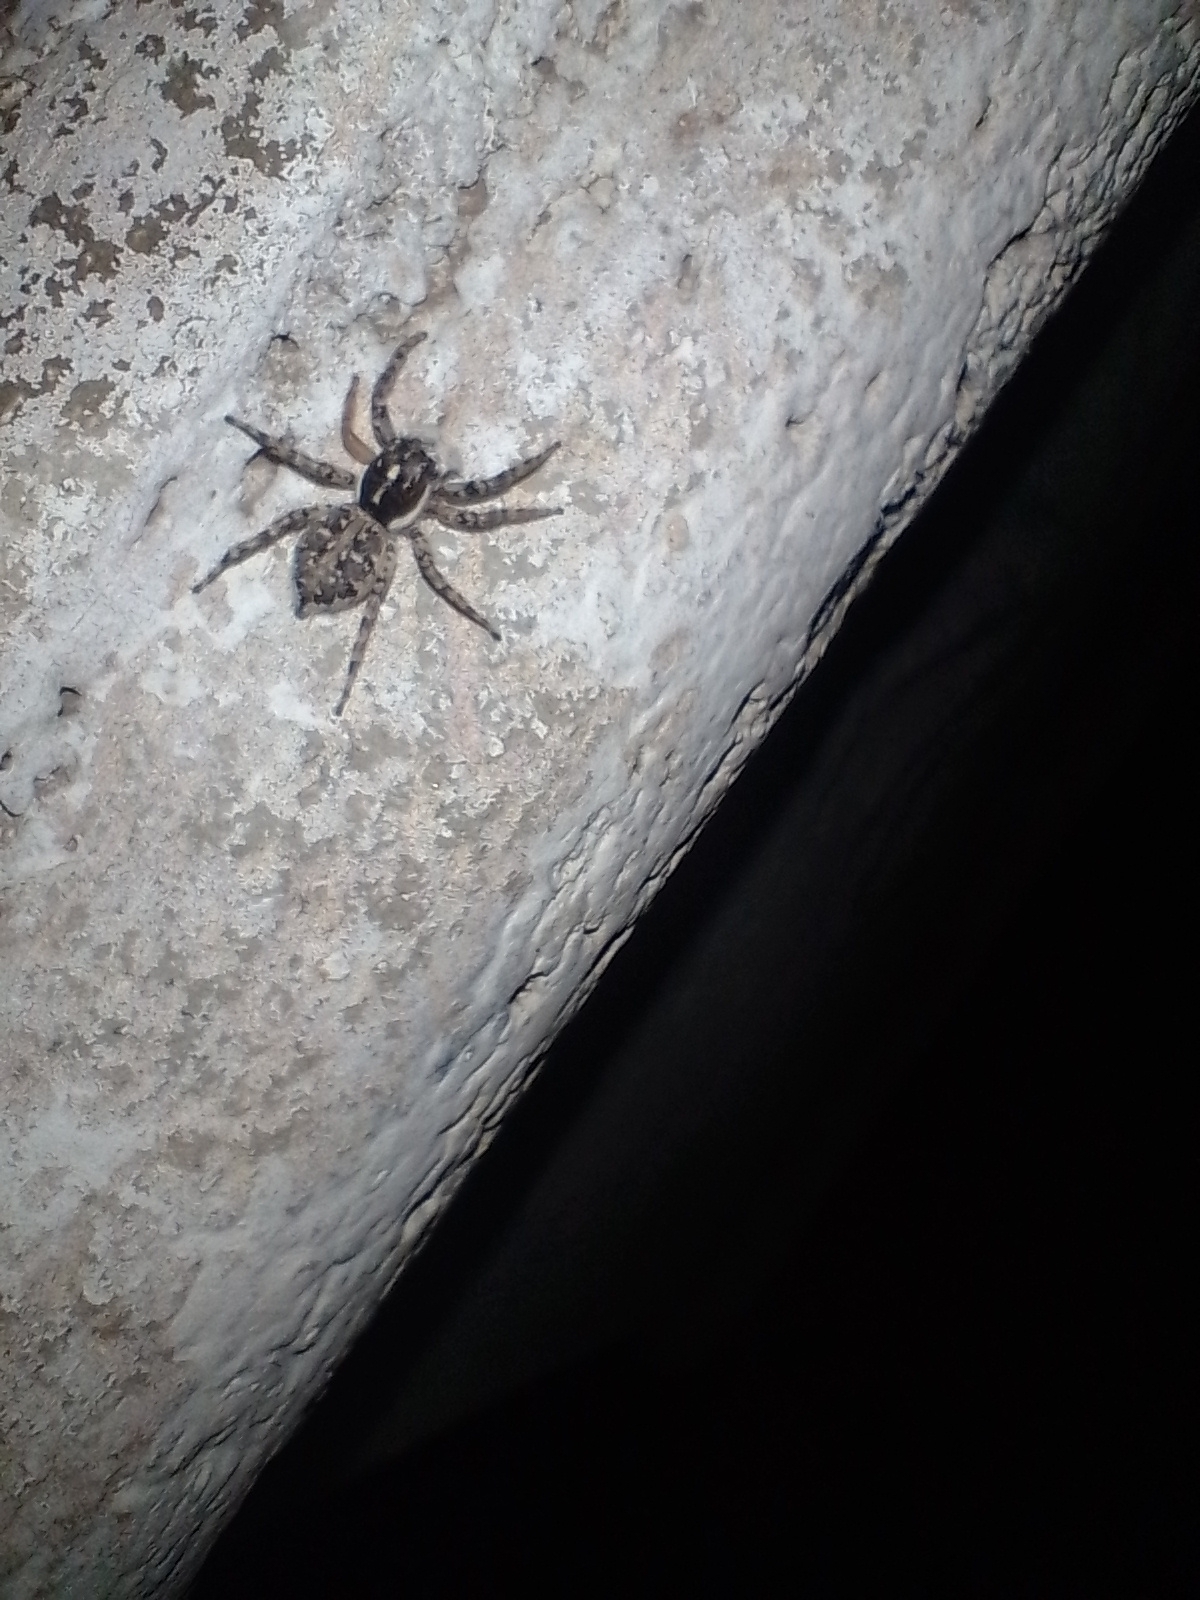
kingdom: Animalia
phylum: Arthropoda
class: Arachnida
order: Araneae
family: Salticidae
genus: Menemerus
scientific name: Menemerus semilimbatus
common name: Jumping spider
